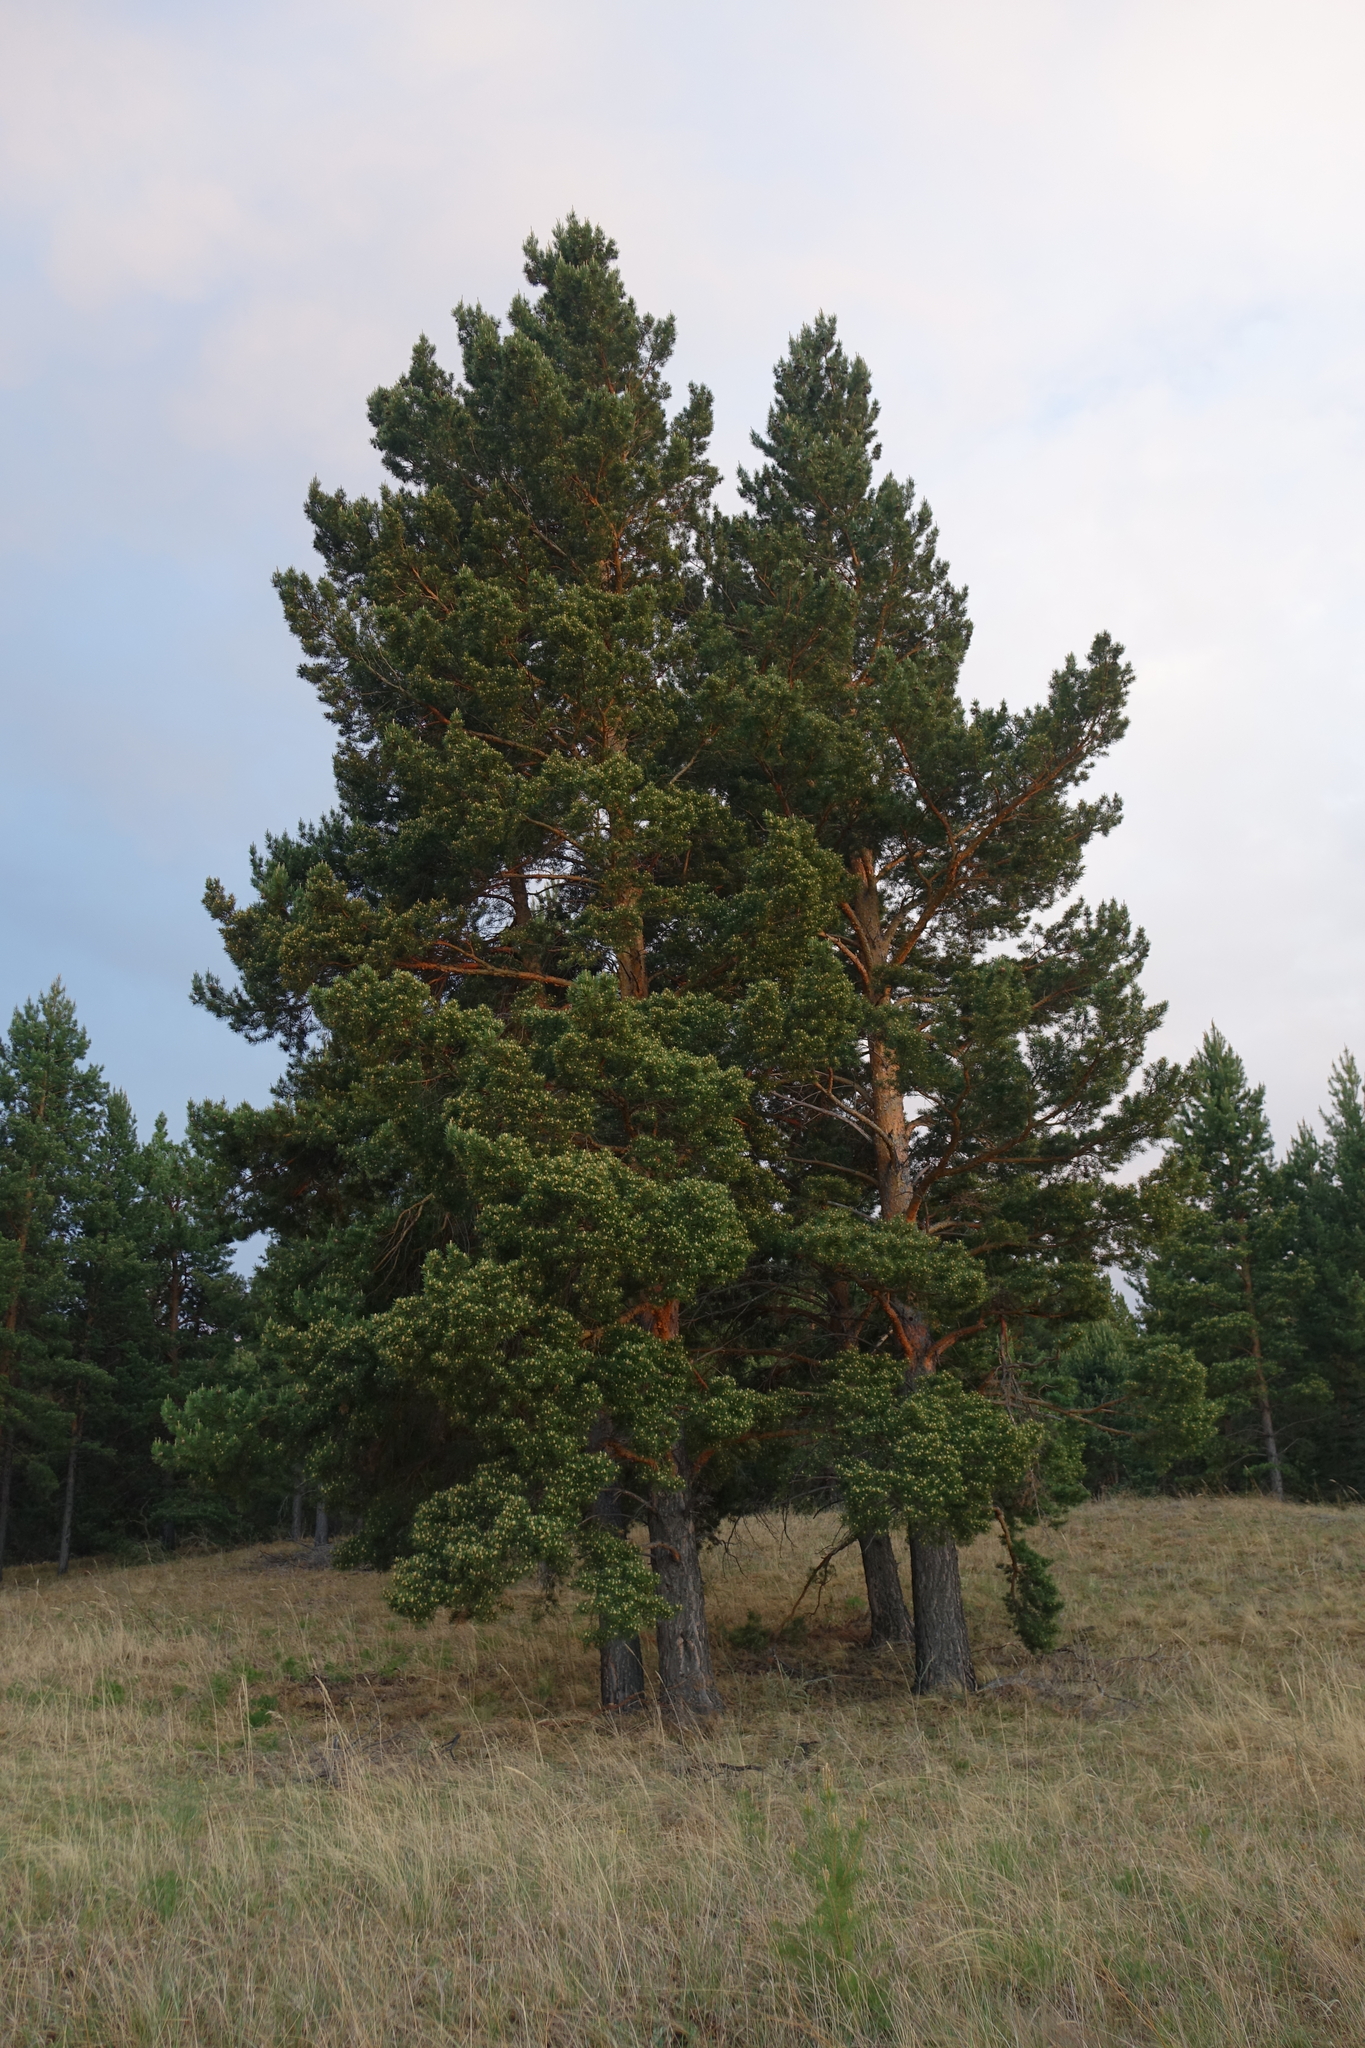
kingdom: Plantae
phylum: Tracheophyta
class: Pinopsida
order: Pinales
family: Pinaceae
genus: Pinus
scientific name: Pinus sylvestris
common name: Scots pine
